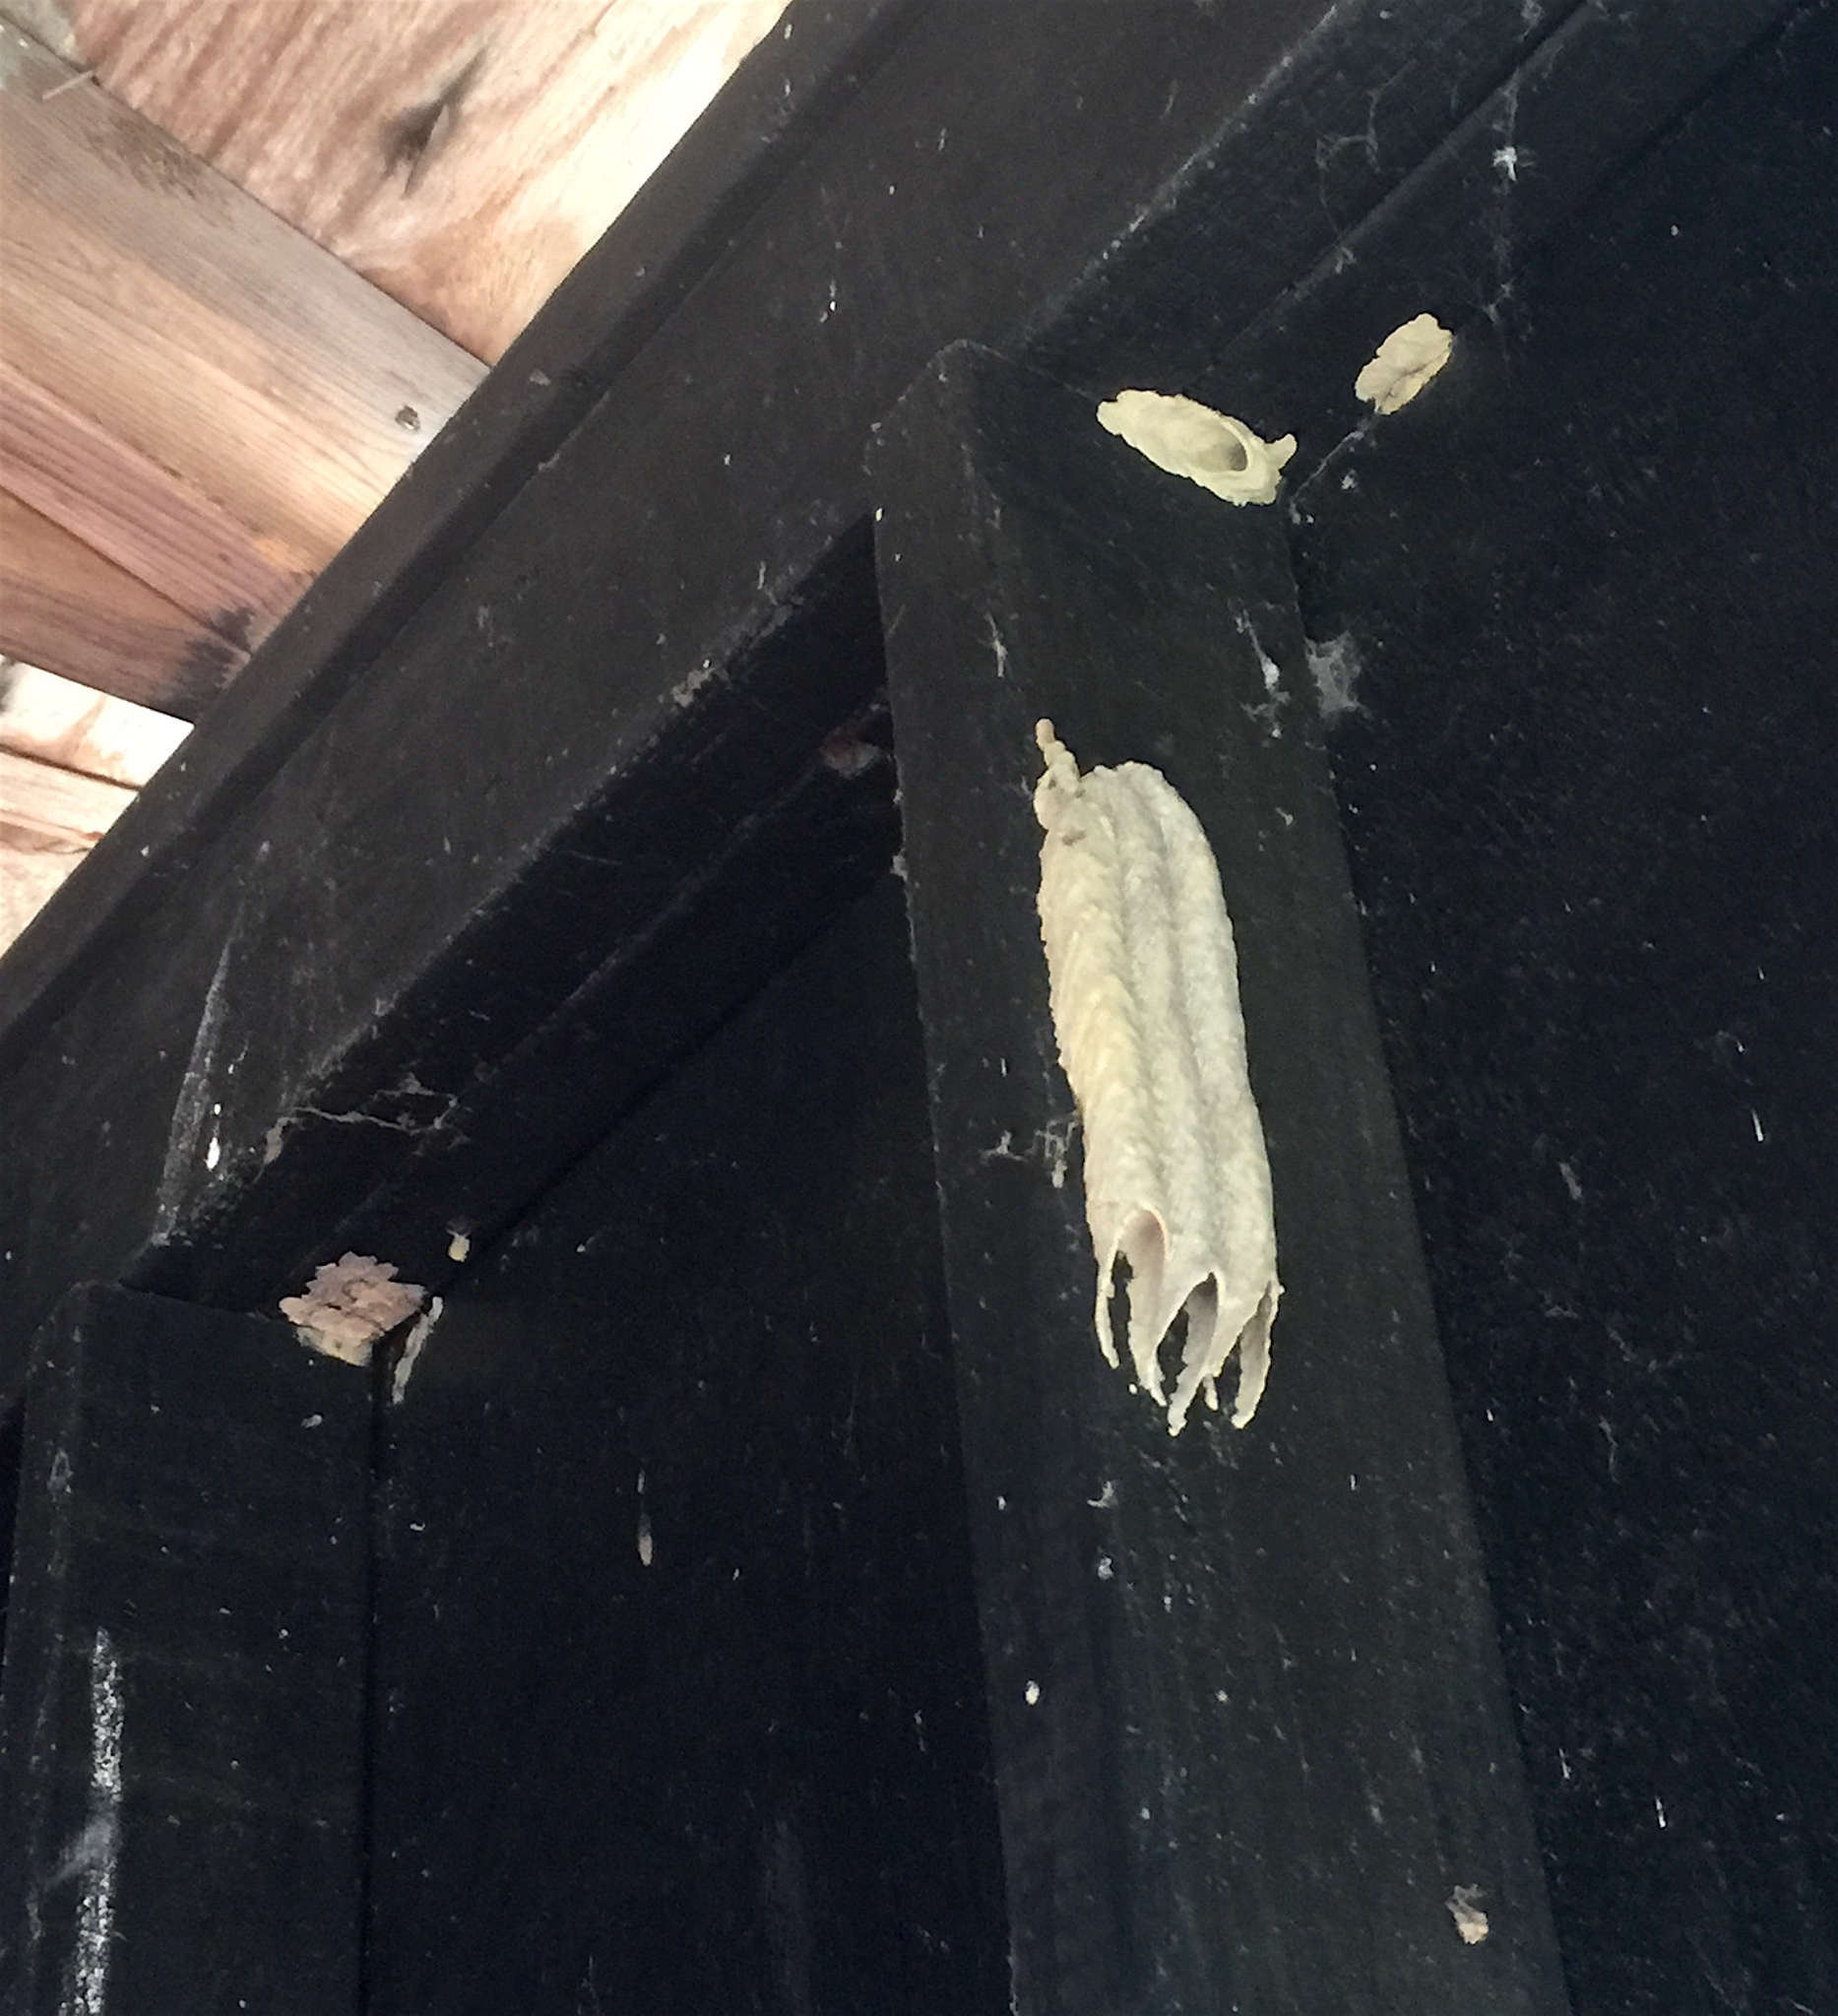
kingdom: Animalia
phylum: Arthropoda
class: Insecta
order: Hymenoptera
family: Crabronidae
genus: Trypoxylon
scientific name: Trypoxylon politum
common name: Organ-pipe mud-dauber wasp
